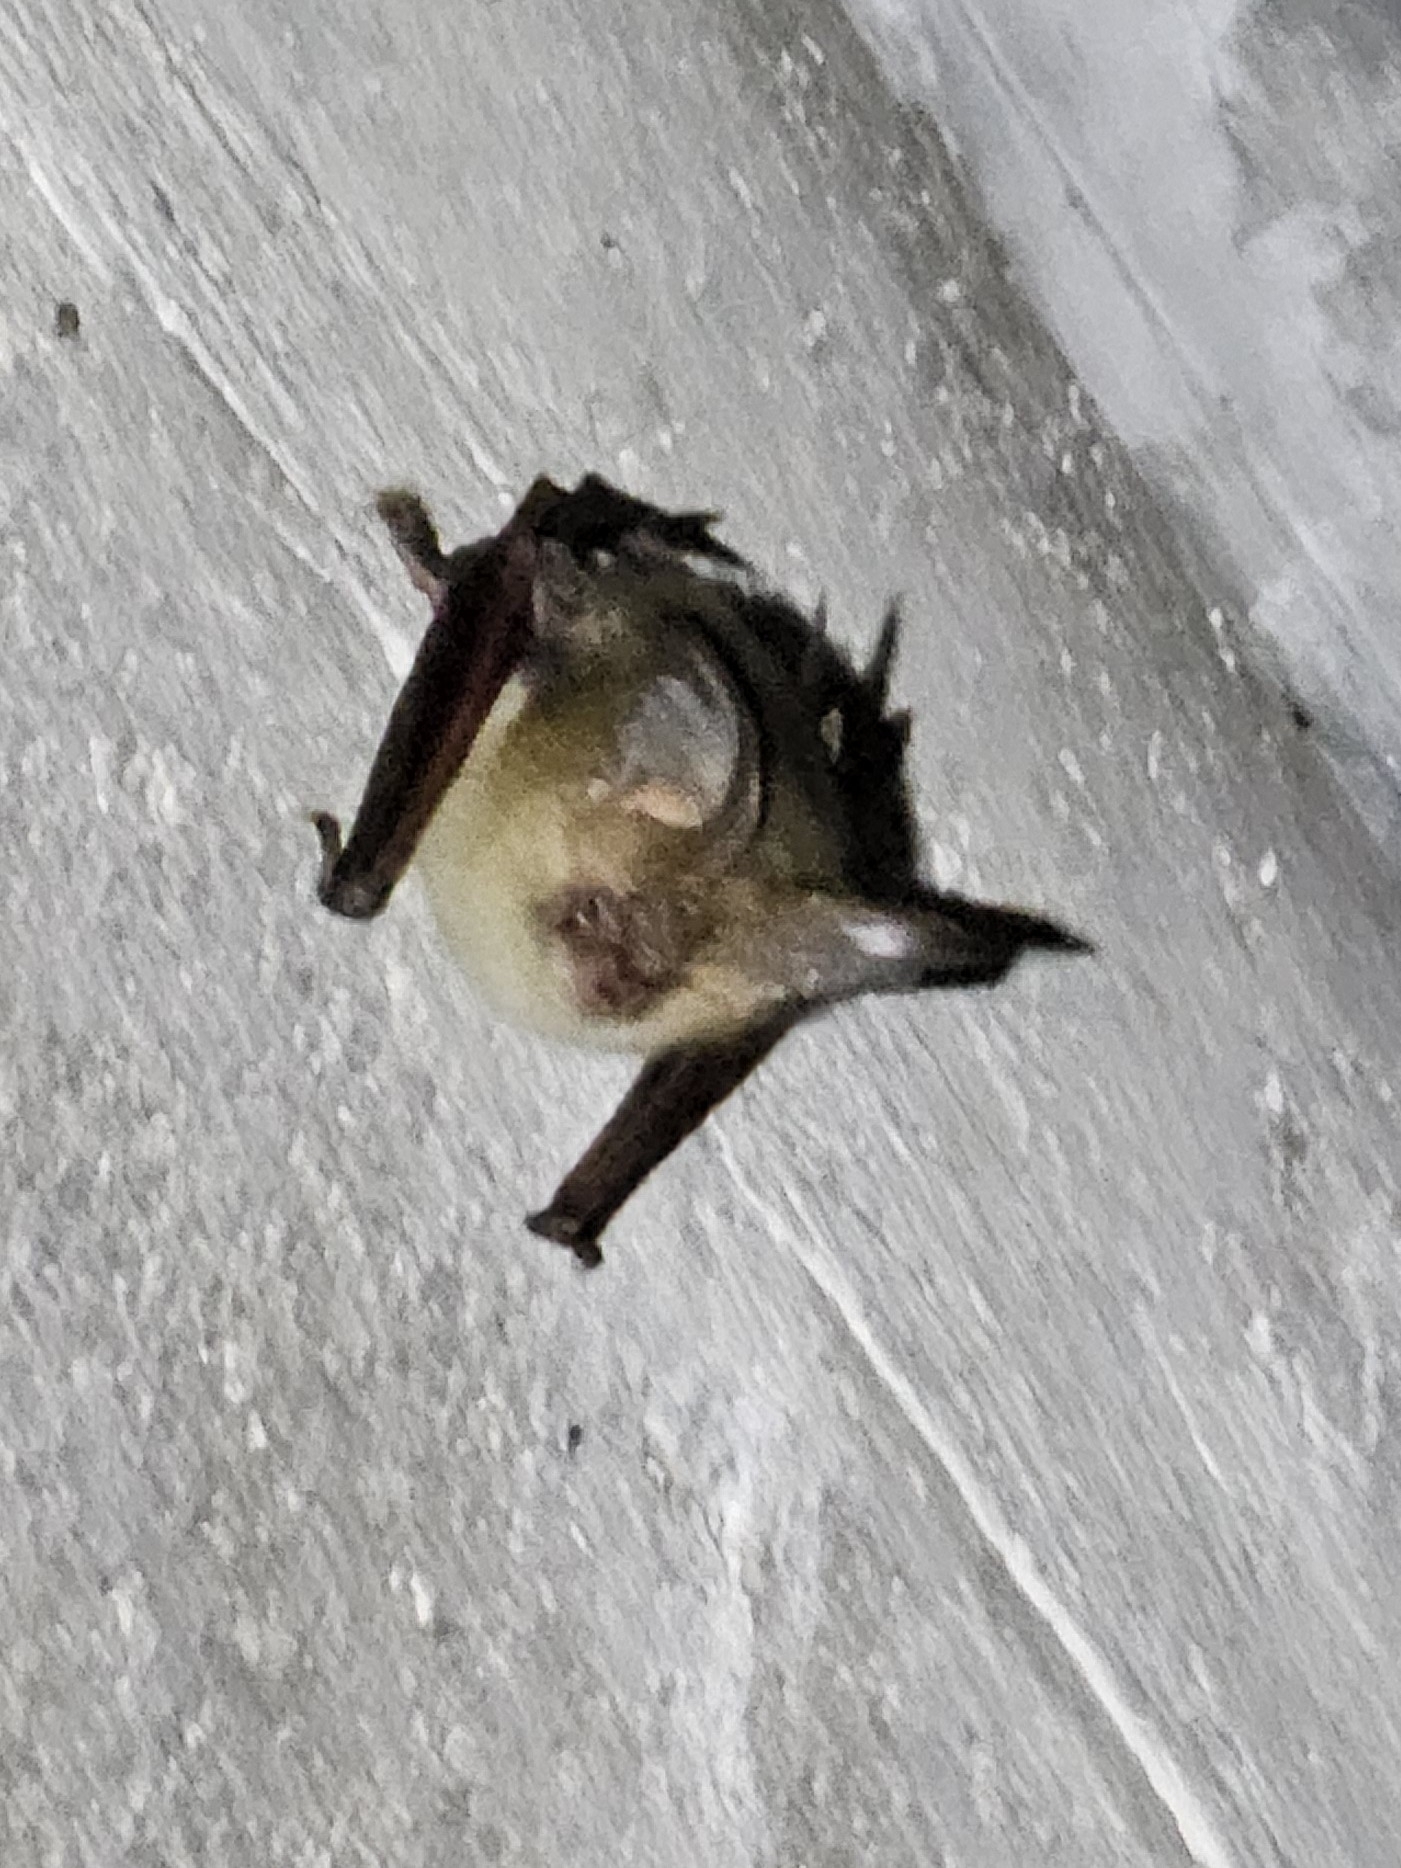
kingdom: Animalia
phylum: Chordata
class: Mammalia
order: Chiroptera
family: Vespertilionidae
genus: Plecotus
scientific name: Plecotus auritus
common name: Brown long-eared bat
